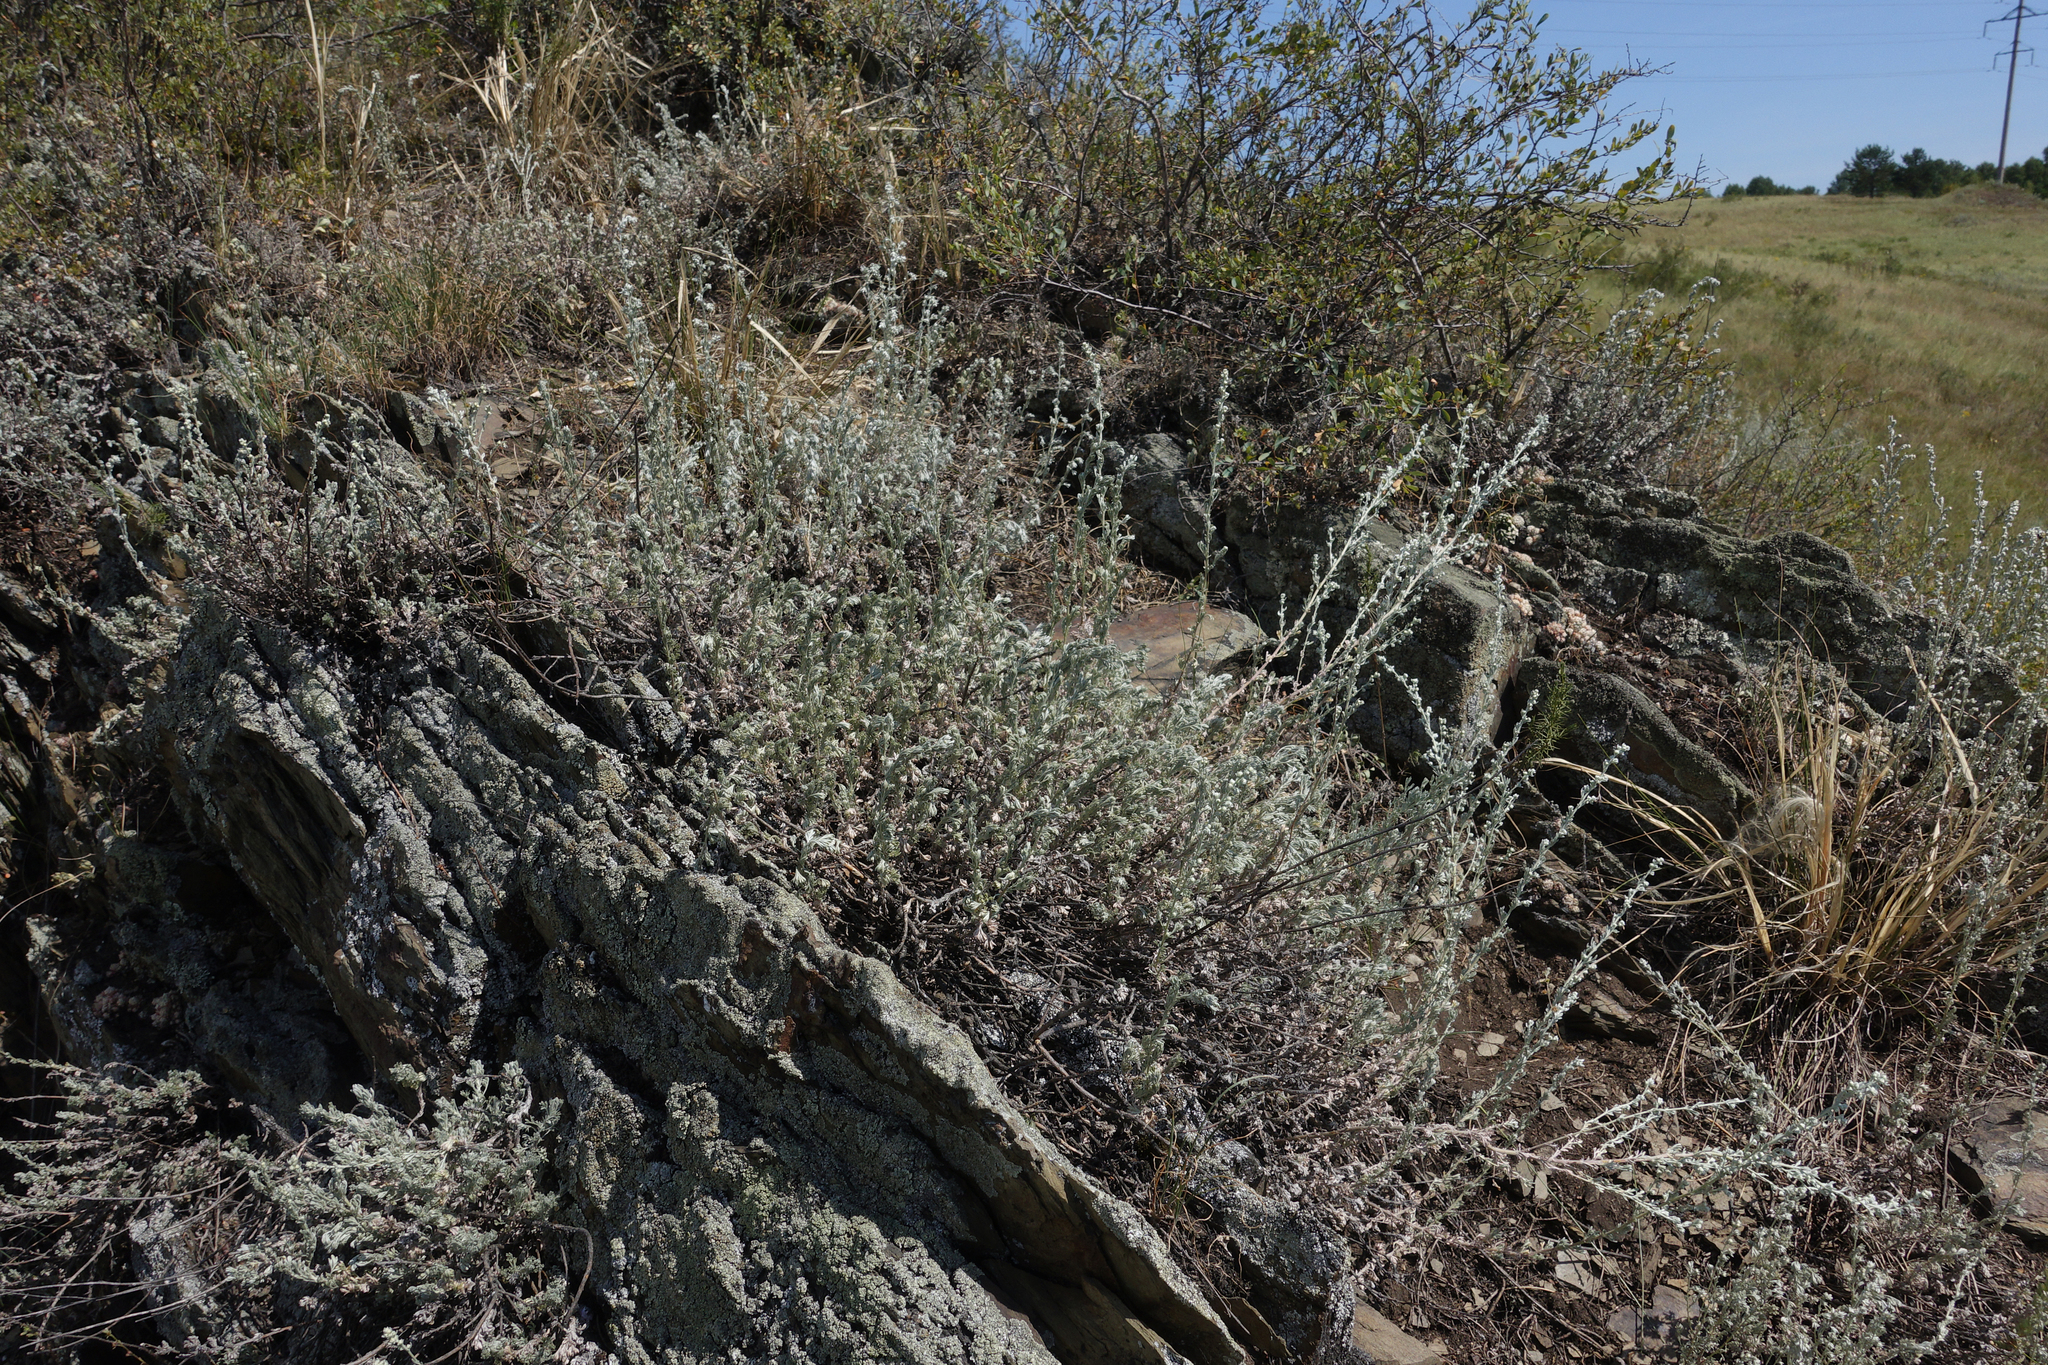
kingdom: Plantae
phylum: Tracheophyta
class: Magnoliopsida
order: Asterales
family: Asteraceae
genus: Artemisia
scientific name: Artemisia frigida
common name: Prairie sagewort
